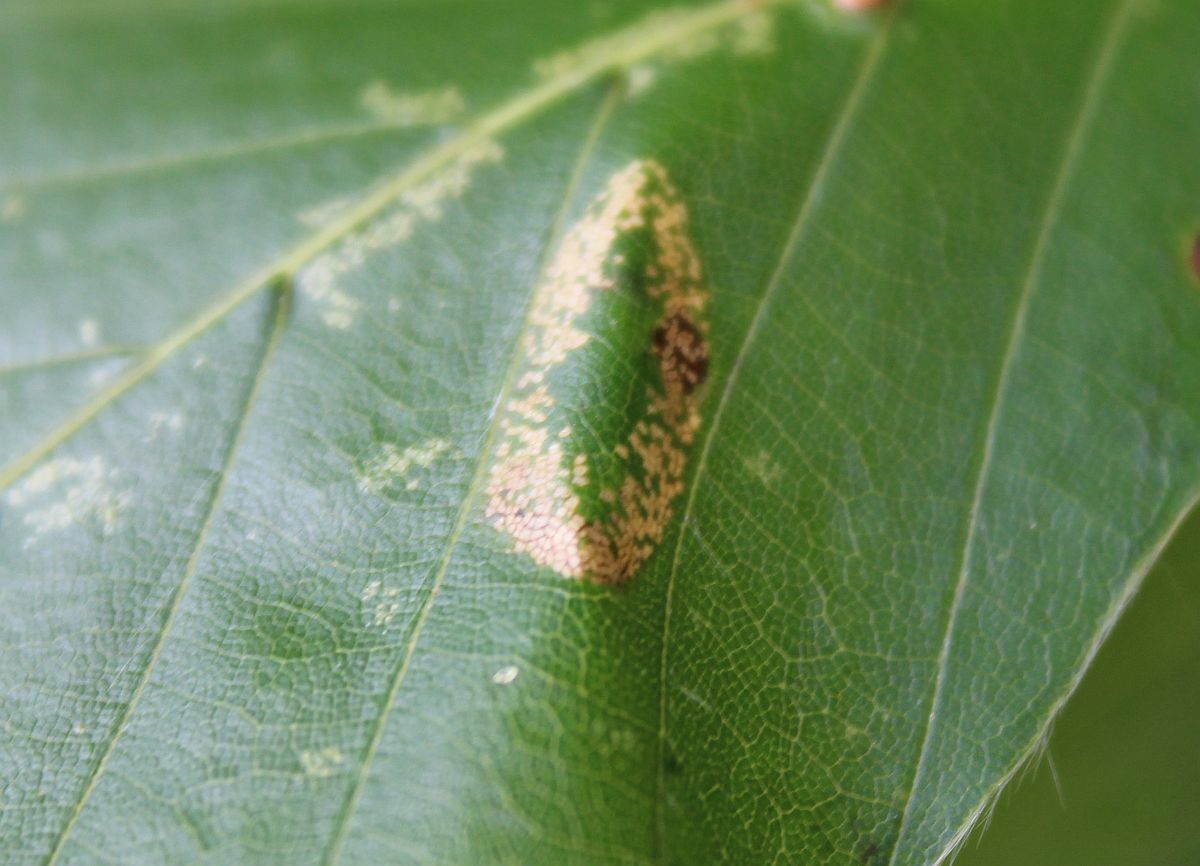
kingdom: Animalia
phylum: Arthropoda
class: Insecta
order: Lepidoptera
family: Gracillariidae
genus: Phyllonorycter
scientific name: Phyllonorycter maestingella
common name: Beech midget
